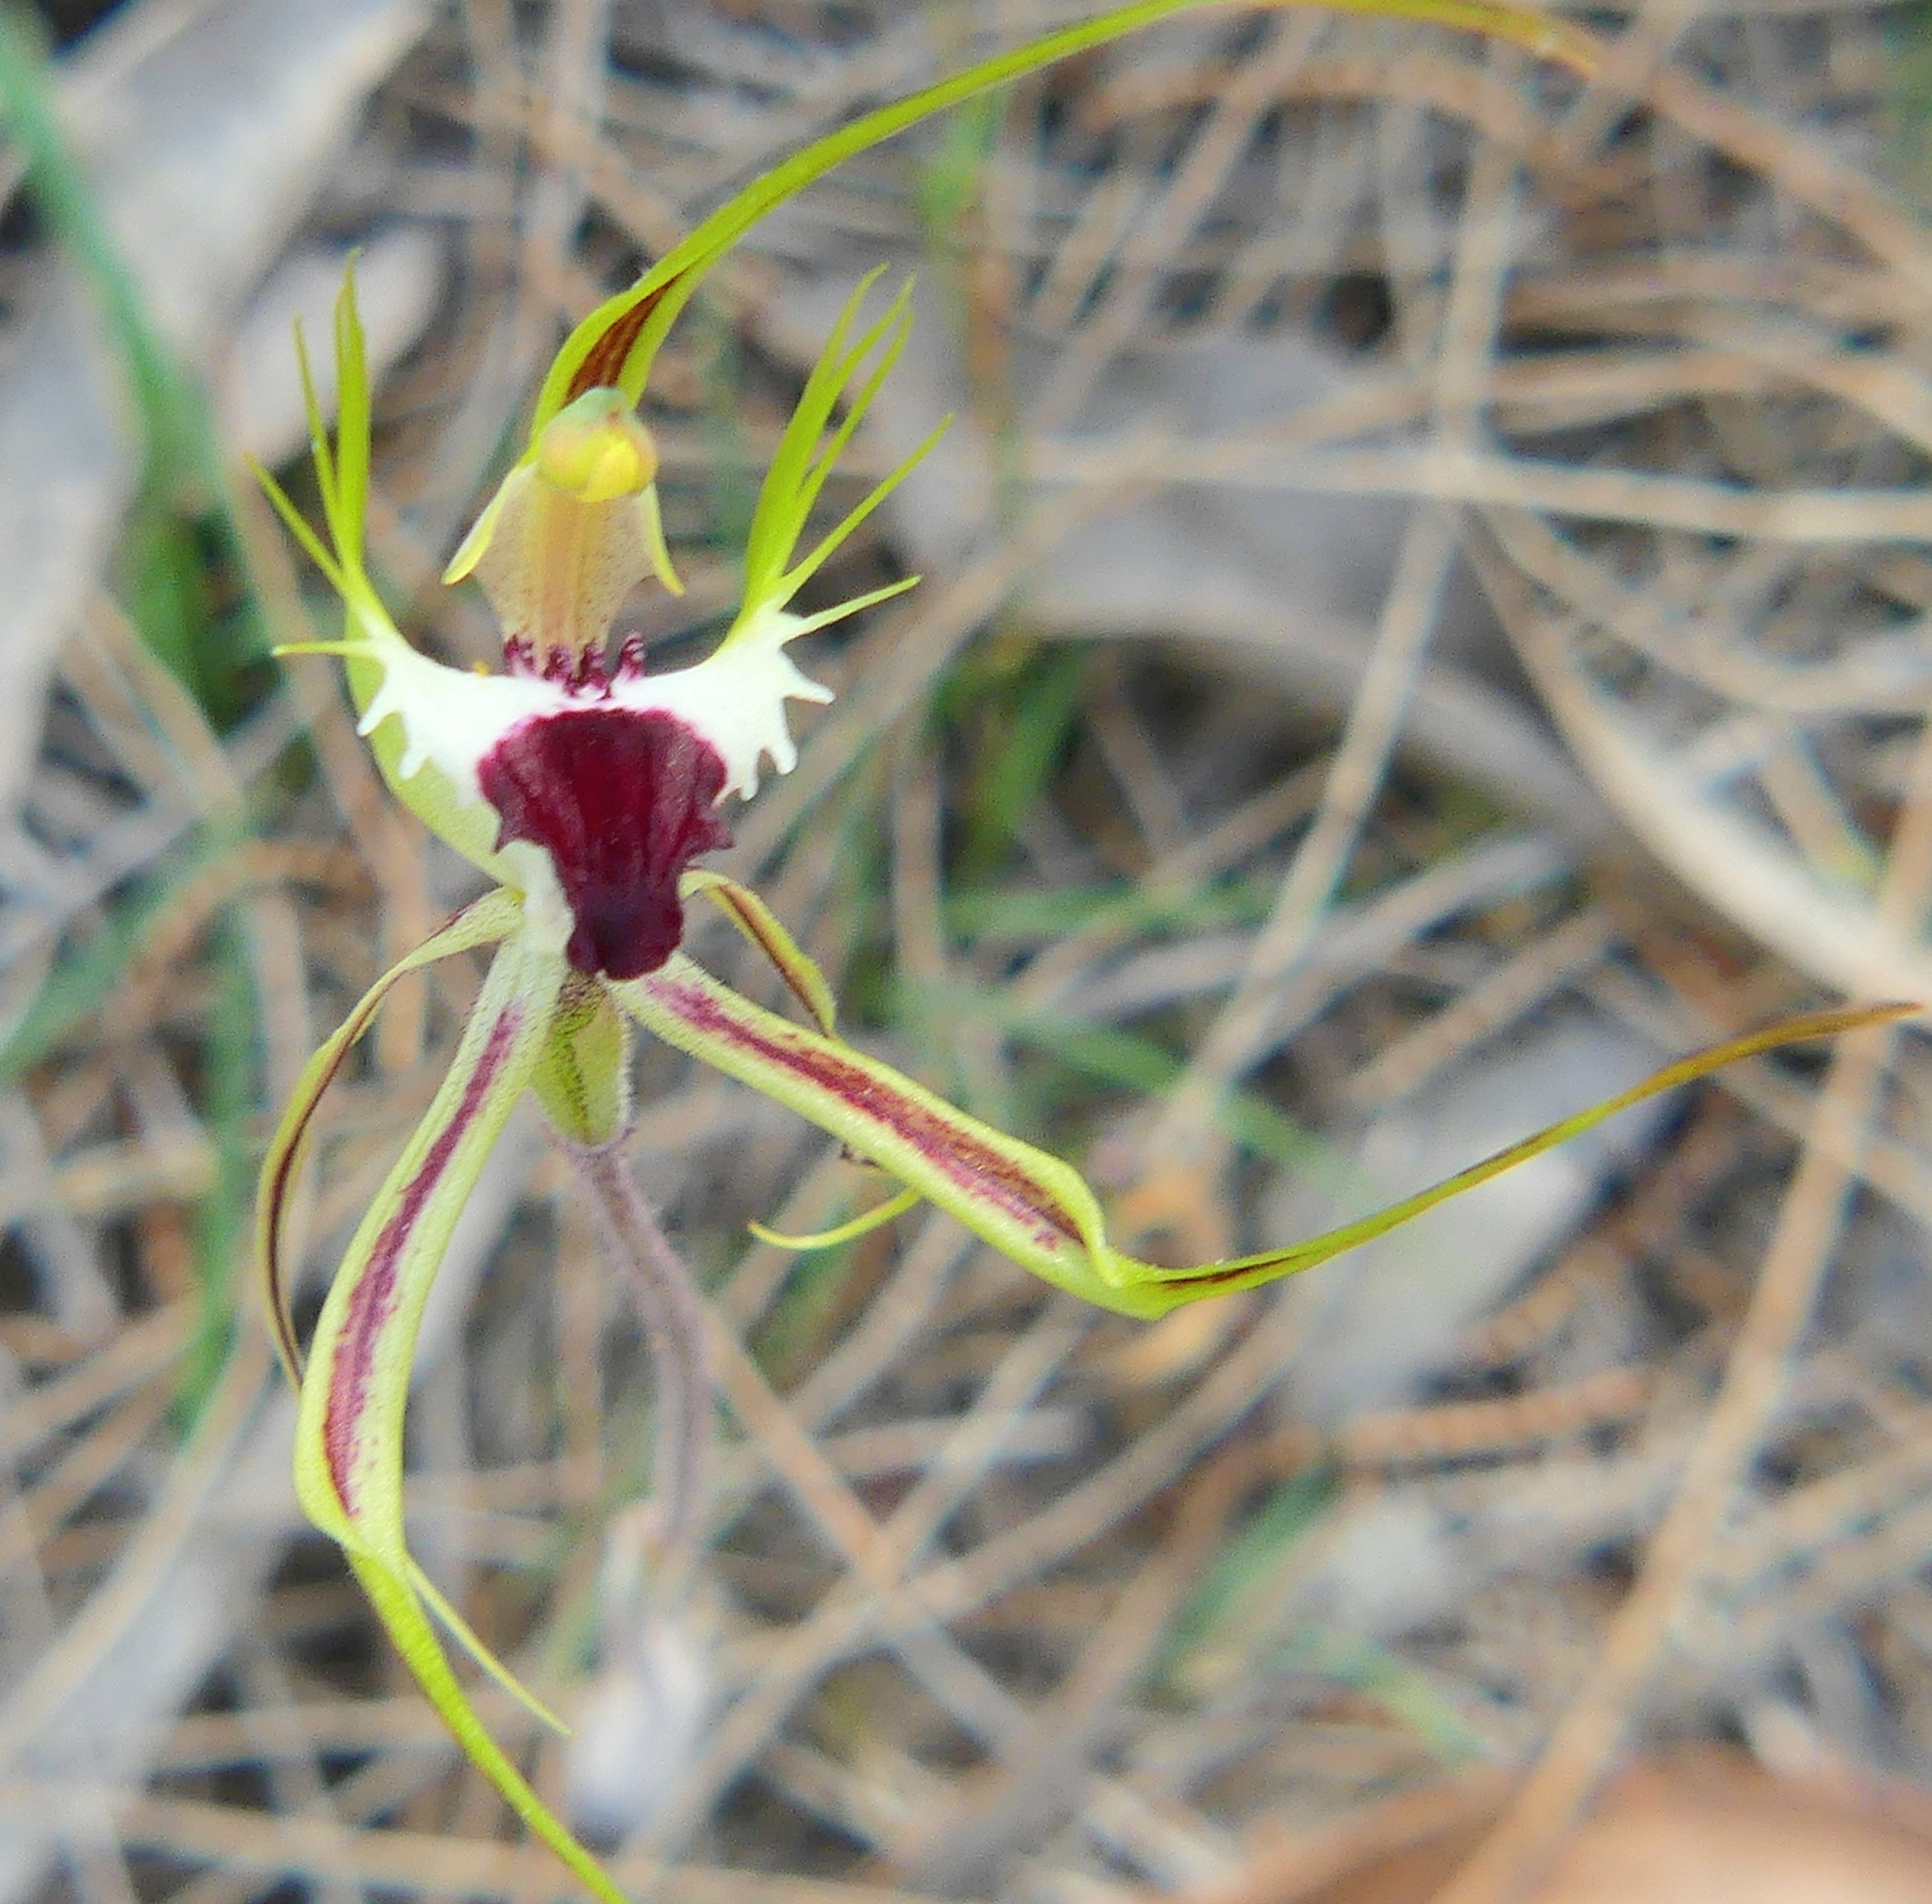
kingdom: Plantae
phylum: Tracheophyta
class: Liliopsida
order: Asparagales
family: Orchidaceae
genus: Caladenia
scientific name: Caladenia tentaculata
